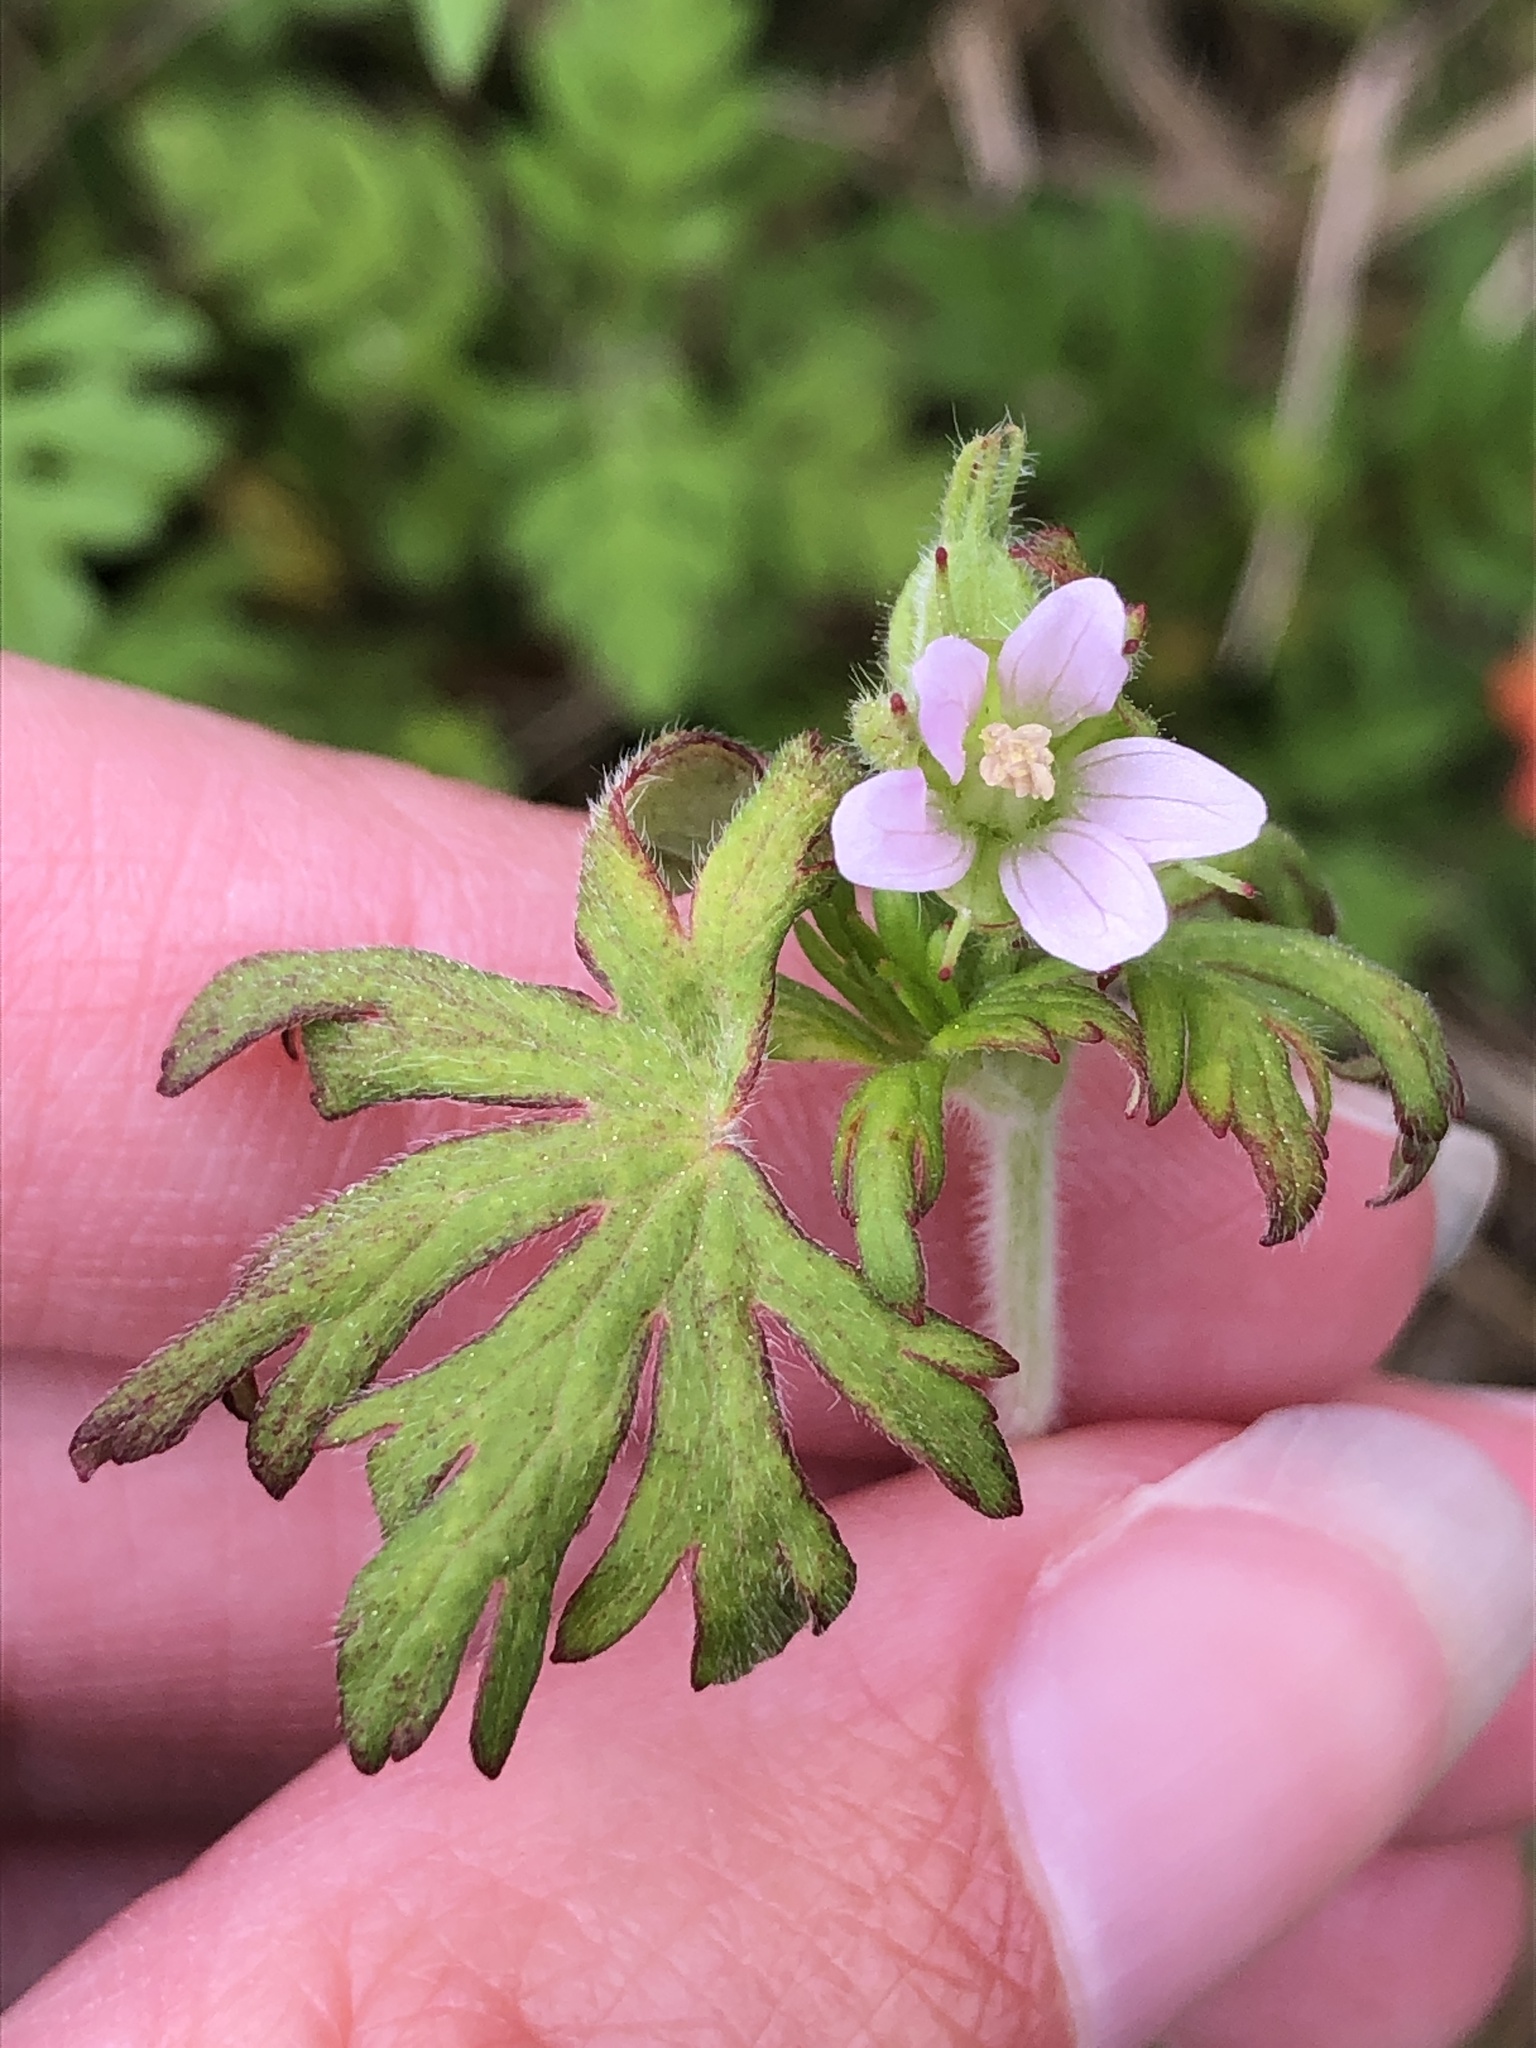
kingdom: Plantae
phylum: Tracheophyta
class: Magnoliopsida
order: Geraniales
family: Geraniaceae
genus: Geranium
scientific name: Geranium carolinianum
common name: Carolina crane's-bill
